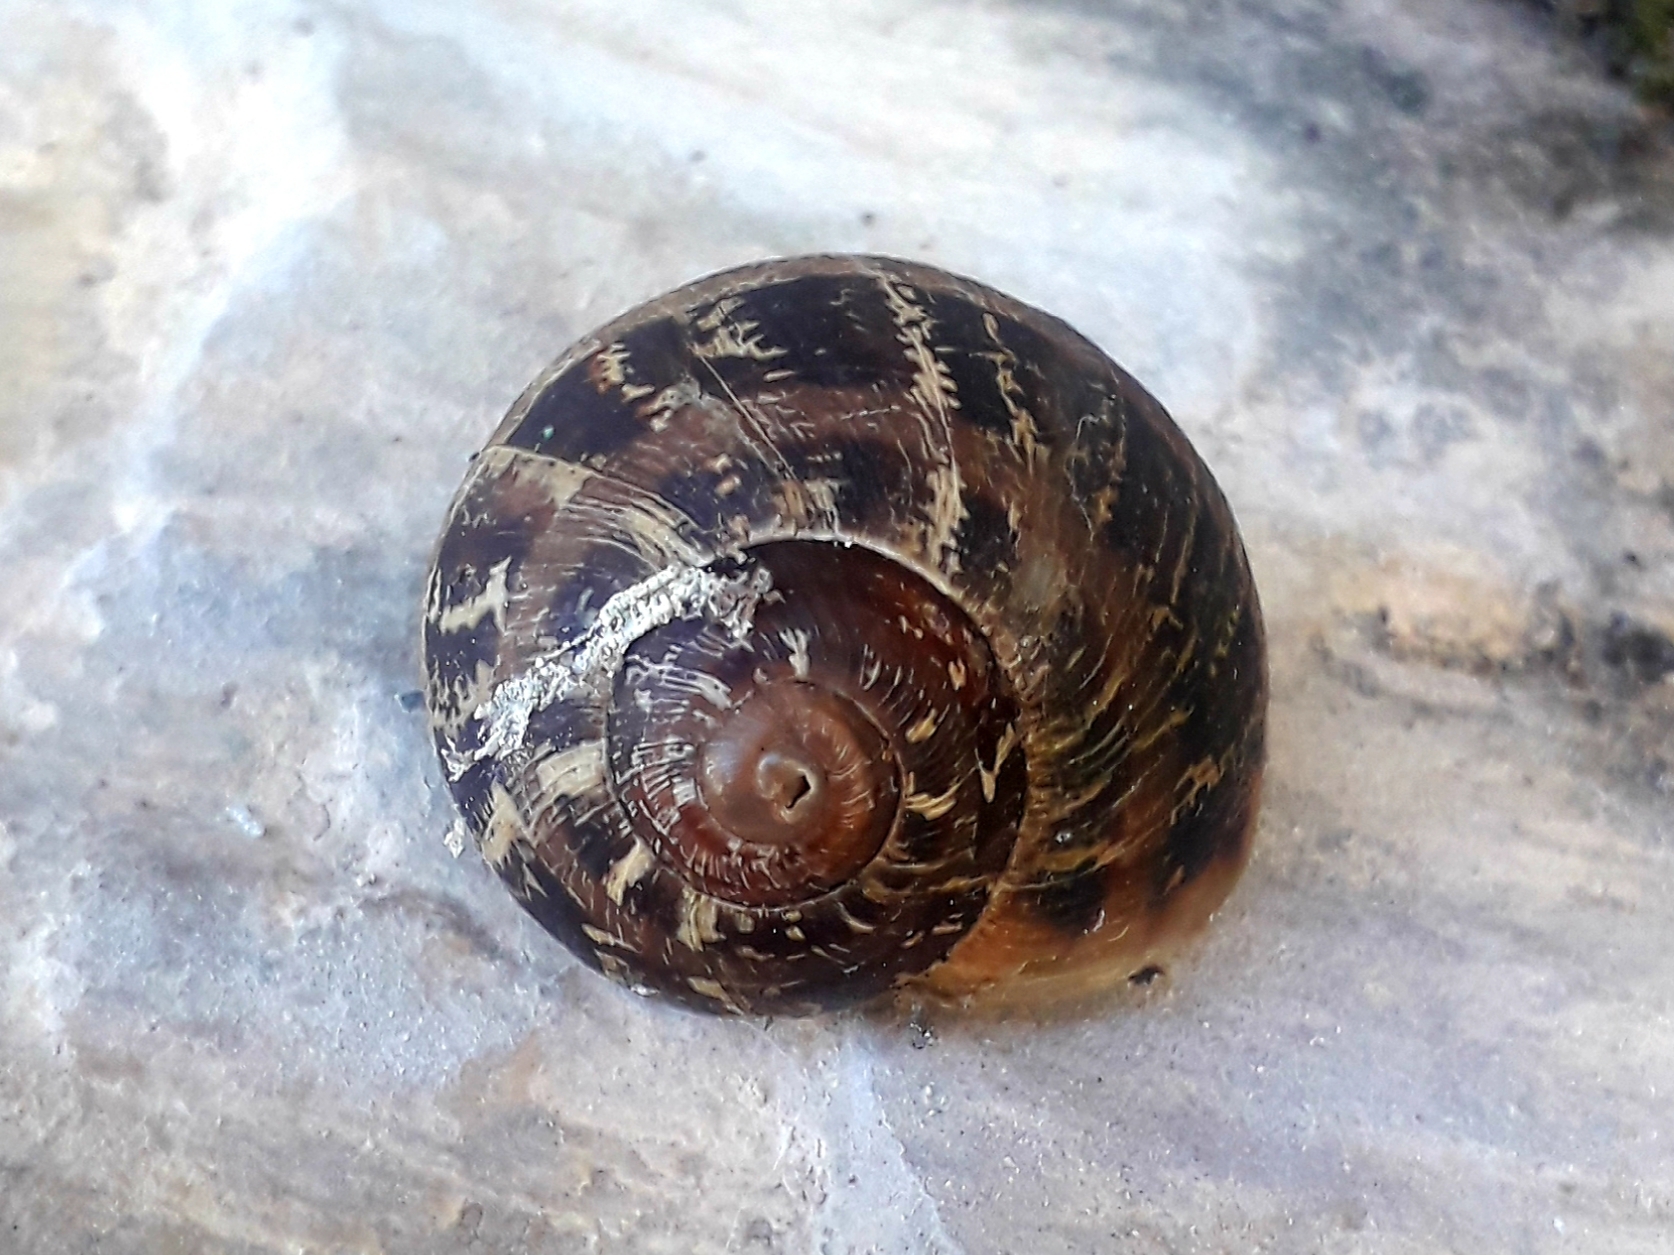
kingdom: Animalia
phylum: Mollusca
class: Gastropoda
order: Stylommatophora
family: Helicidae
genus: Cornu
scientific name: Cornu aspersum
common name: Brown garden snail
